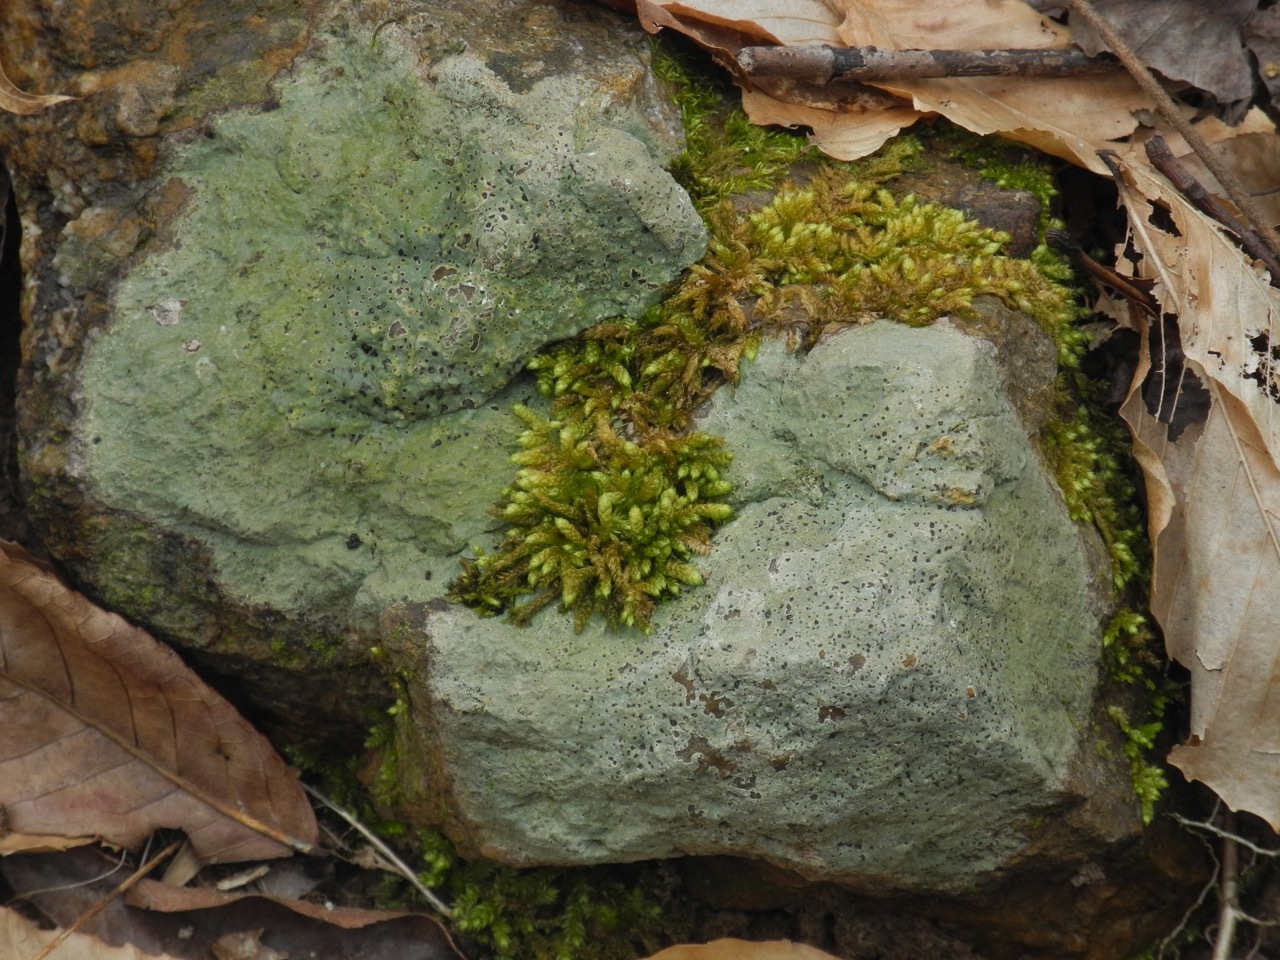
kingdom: Fungi
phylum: Ascomycota
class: Lecanoromycetes
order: Lecideales
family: Lecideaceae
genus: Porpidia
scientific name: Porpidia albocaerulescens
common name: Smokey-eyed boulder lichen
